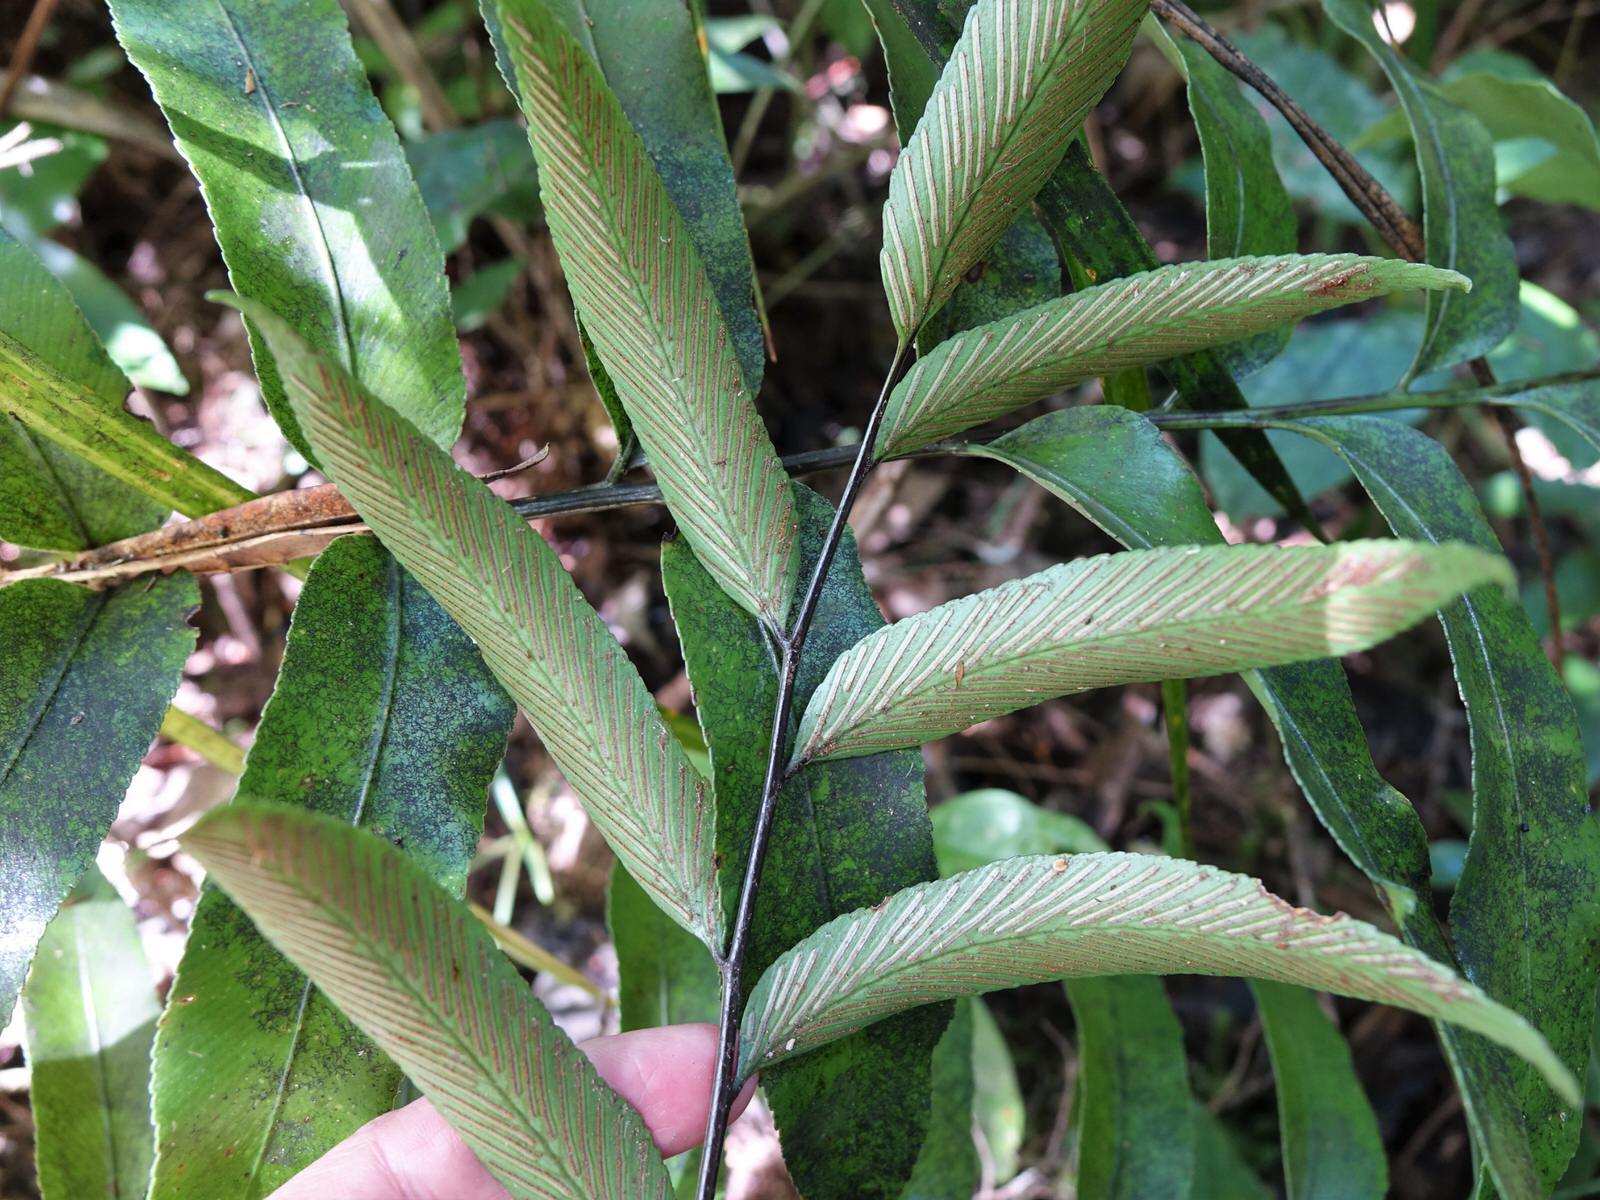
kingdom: Plantae
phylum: Tracheophyta
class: Polypodiopsida
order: Polypodiales
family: Aspleniaceae
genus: Asplenium
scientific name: Asplenium oblongifolium
